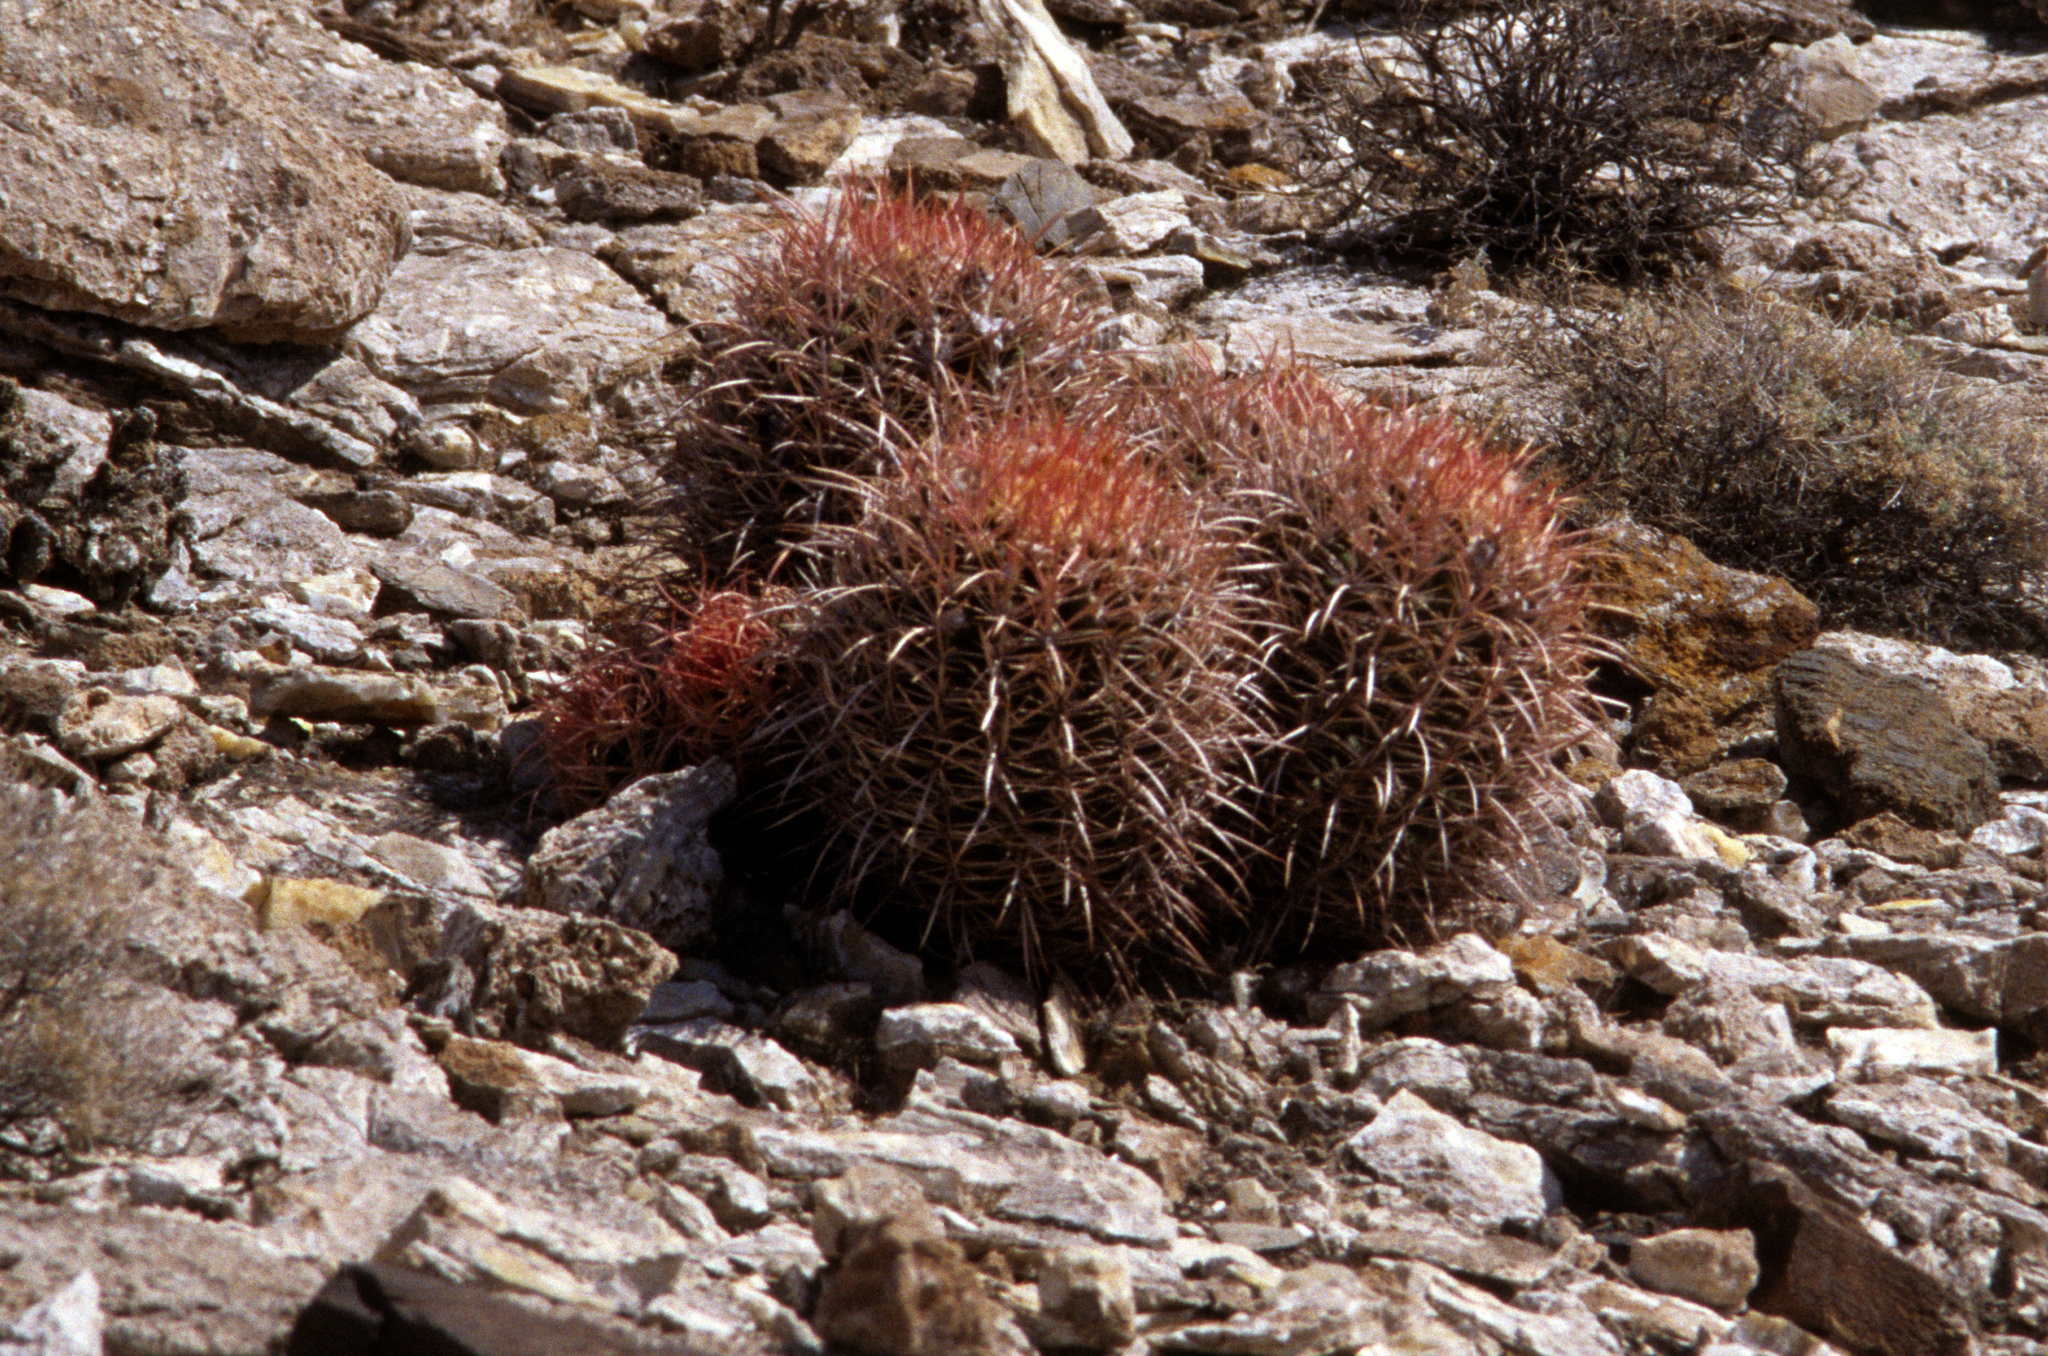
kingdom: Plantae
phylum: Tracheophyta
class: Magnoliopsida
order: Caryophyllales
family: Cactaceae
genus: Echinocactus
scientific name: Echinocactus polycephalus
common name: Cottontop cactus
